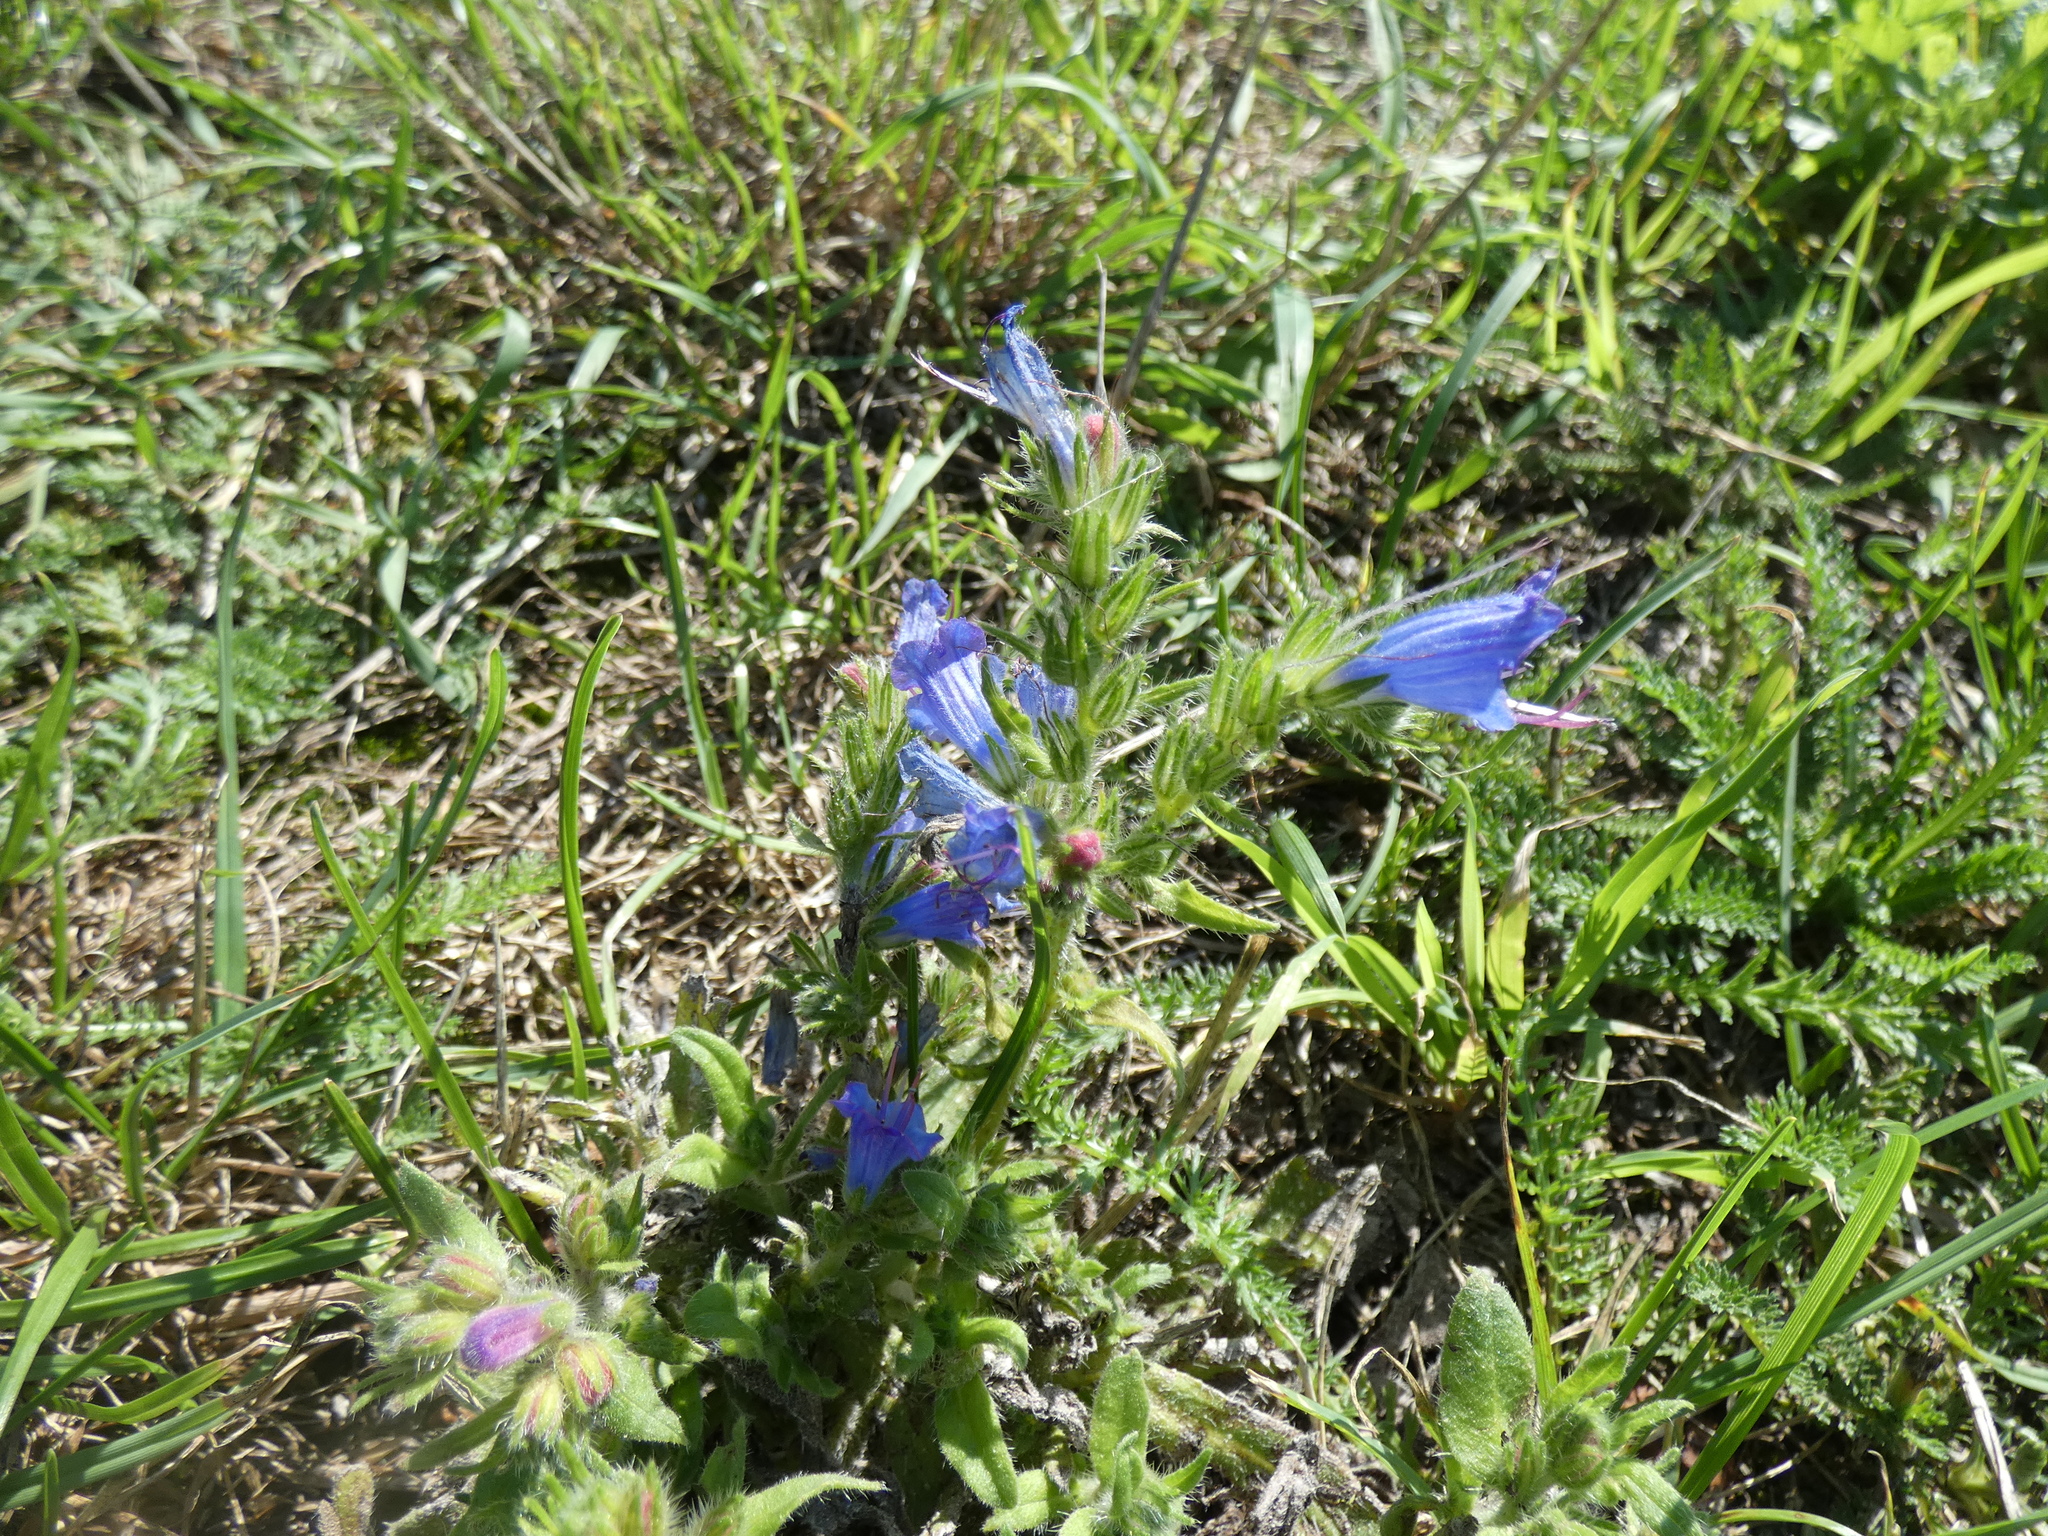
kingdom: Plantae
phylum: Tracheophyta
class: Magnoliopsida
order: Boraginales
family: Boraginaceae
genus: Echium
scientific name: Echium vulgare
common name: Common viper's bugloss
